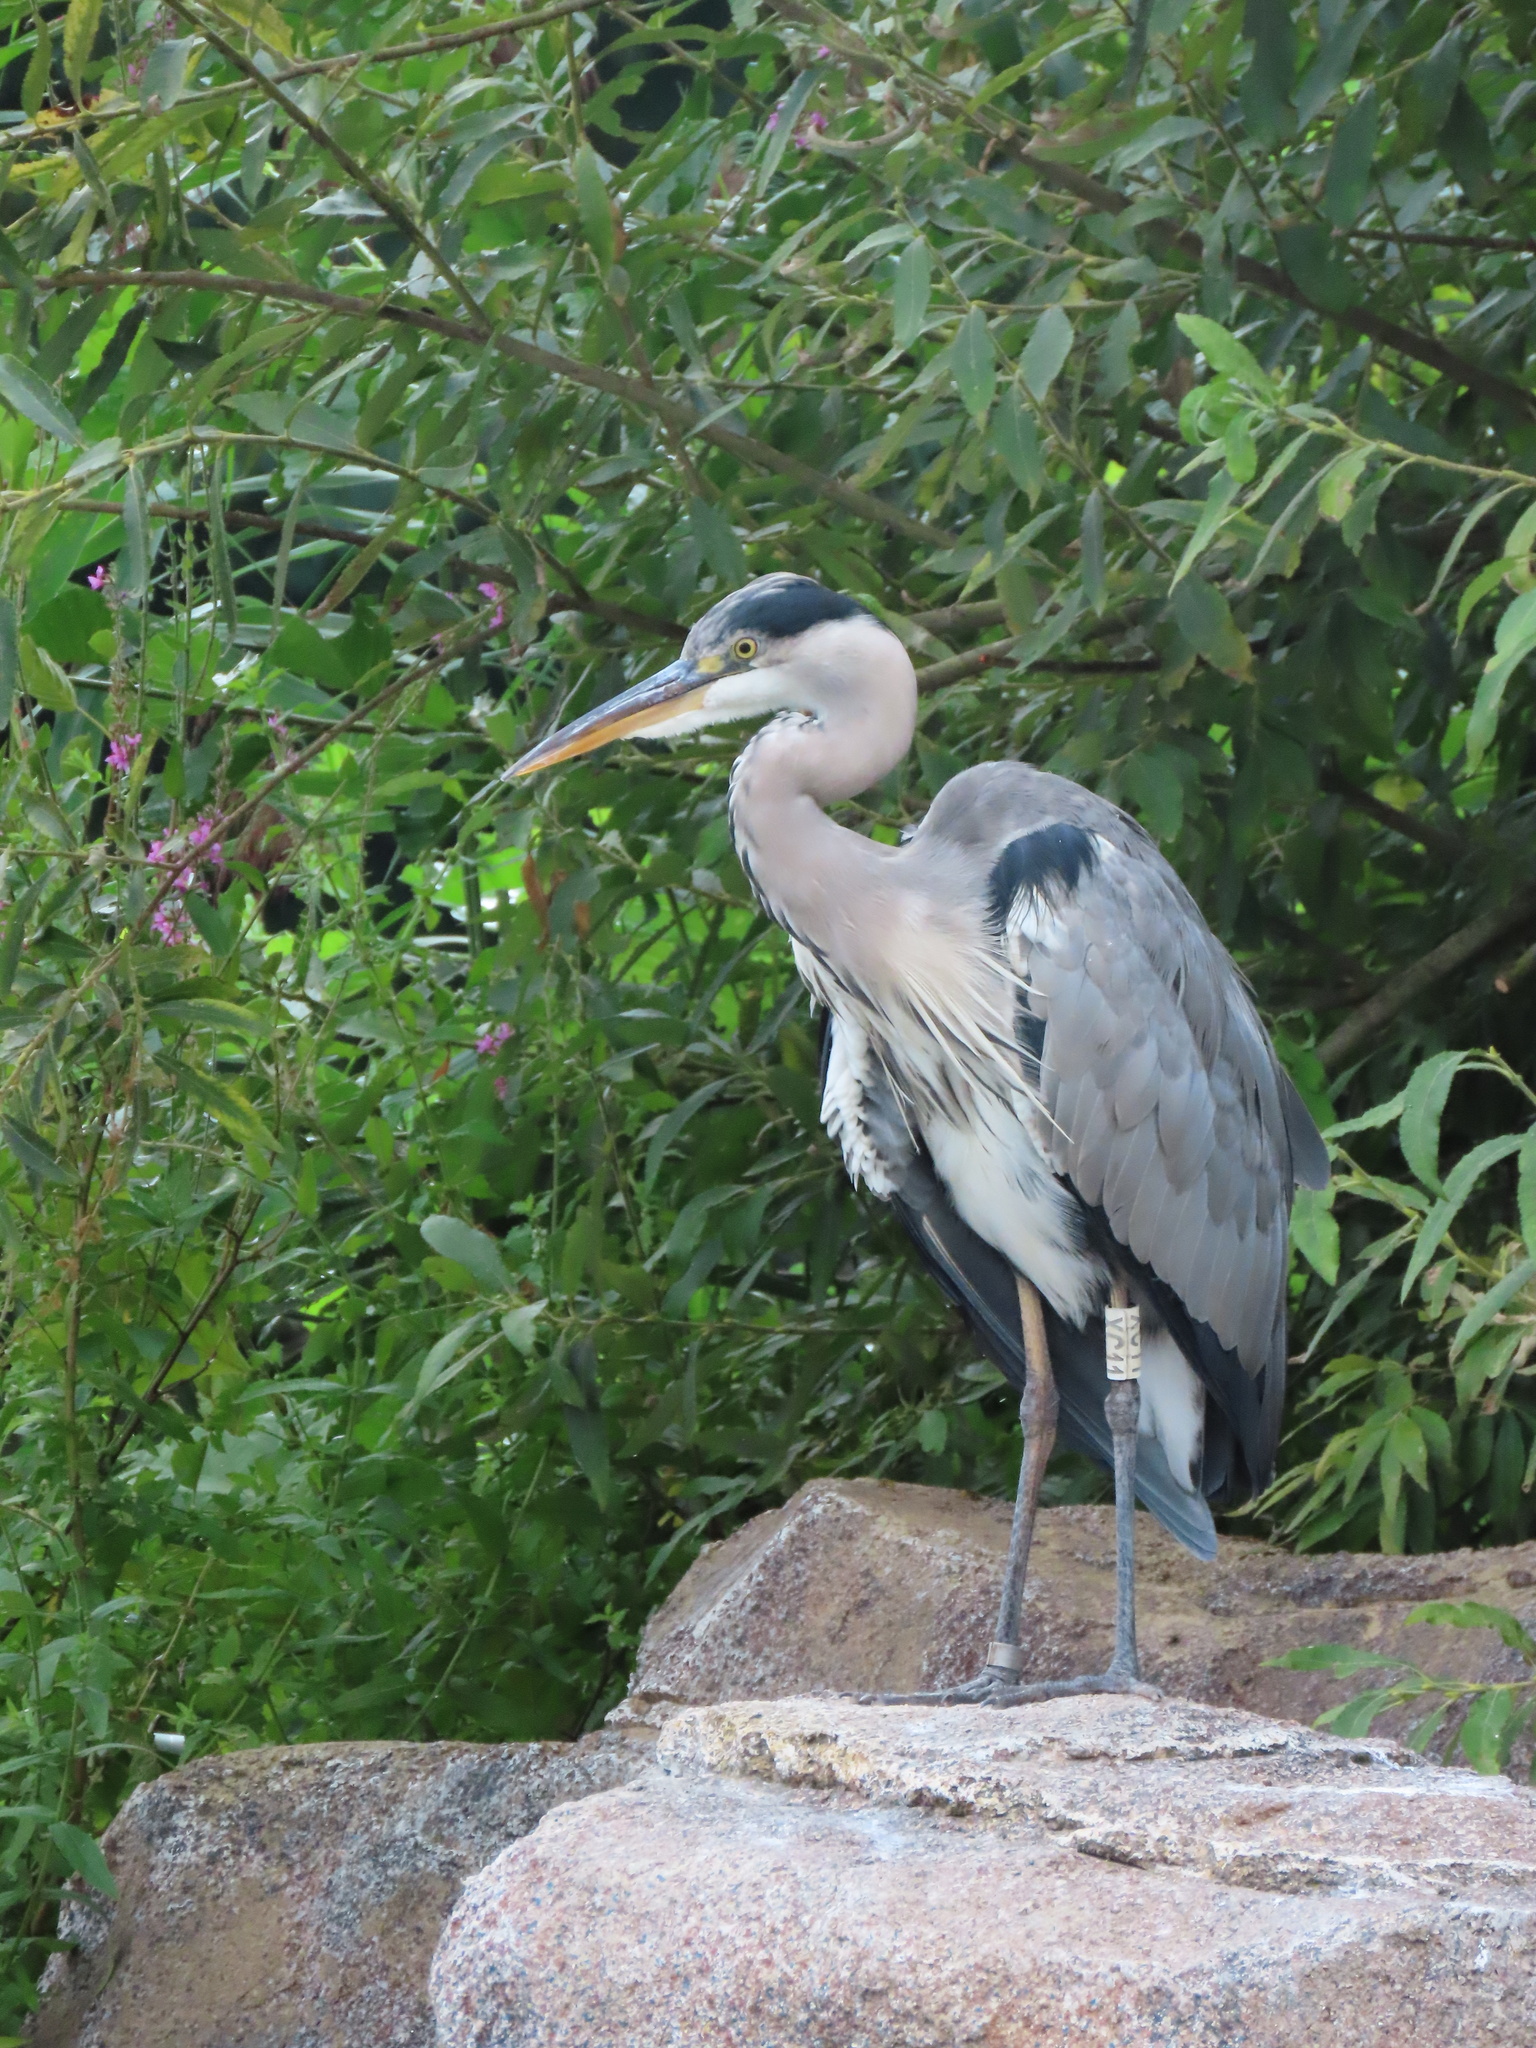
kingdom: Animalia
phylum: Chordata
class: Aves
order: Pelecaniformes
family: Ardeidae
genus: Ardea
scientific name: Ardea cinerea
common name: Grey heron
